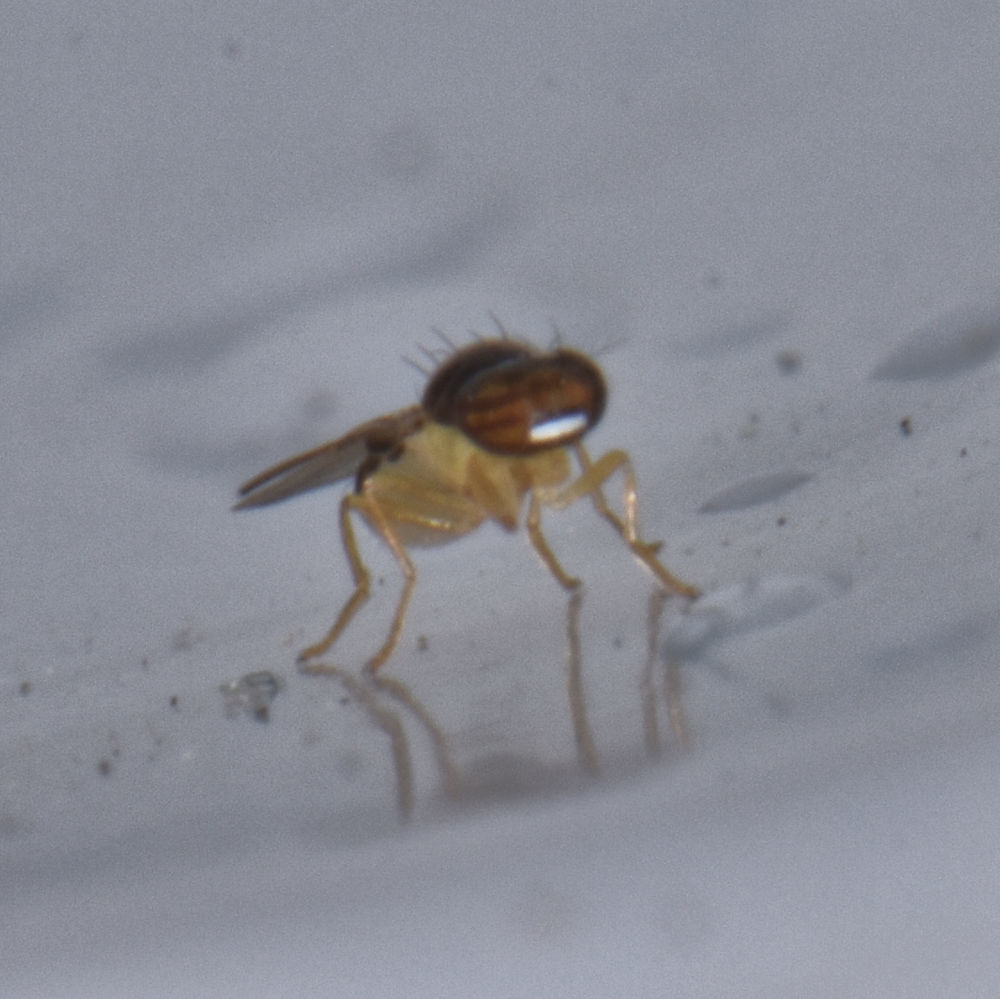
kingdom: Animalia
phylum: Arthropoda
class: Insecta
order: Diptera
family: Asteiidae
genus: Asteia
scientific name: Asteia beata
